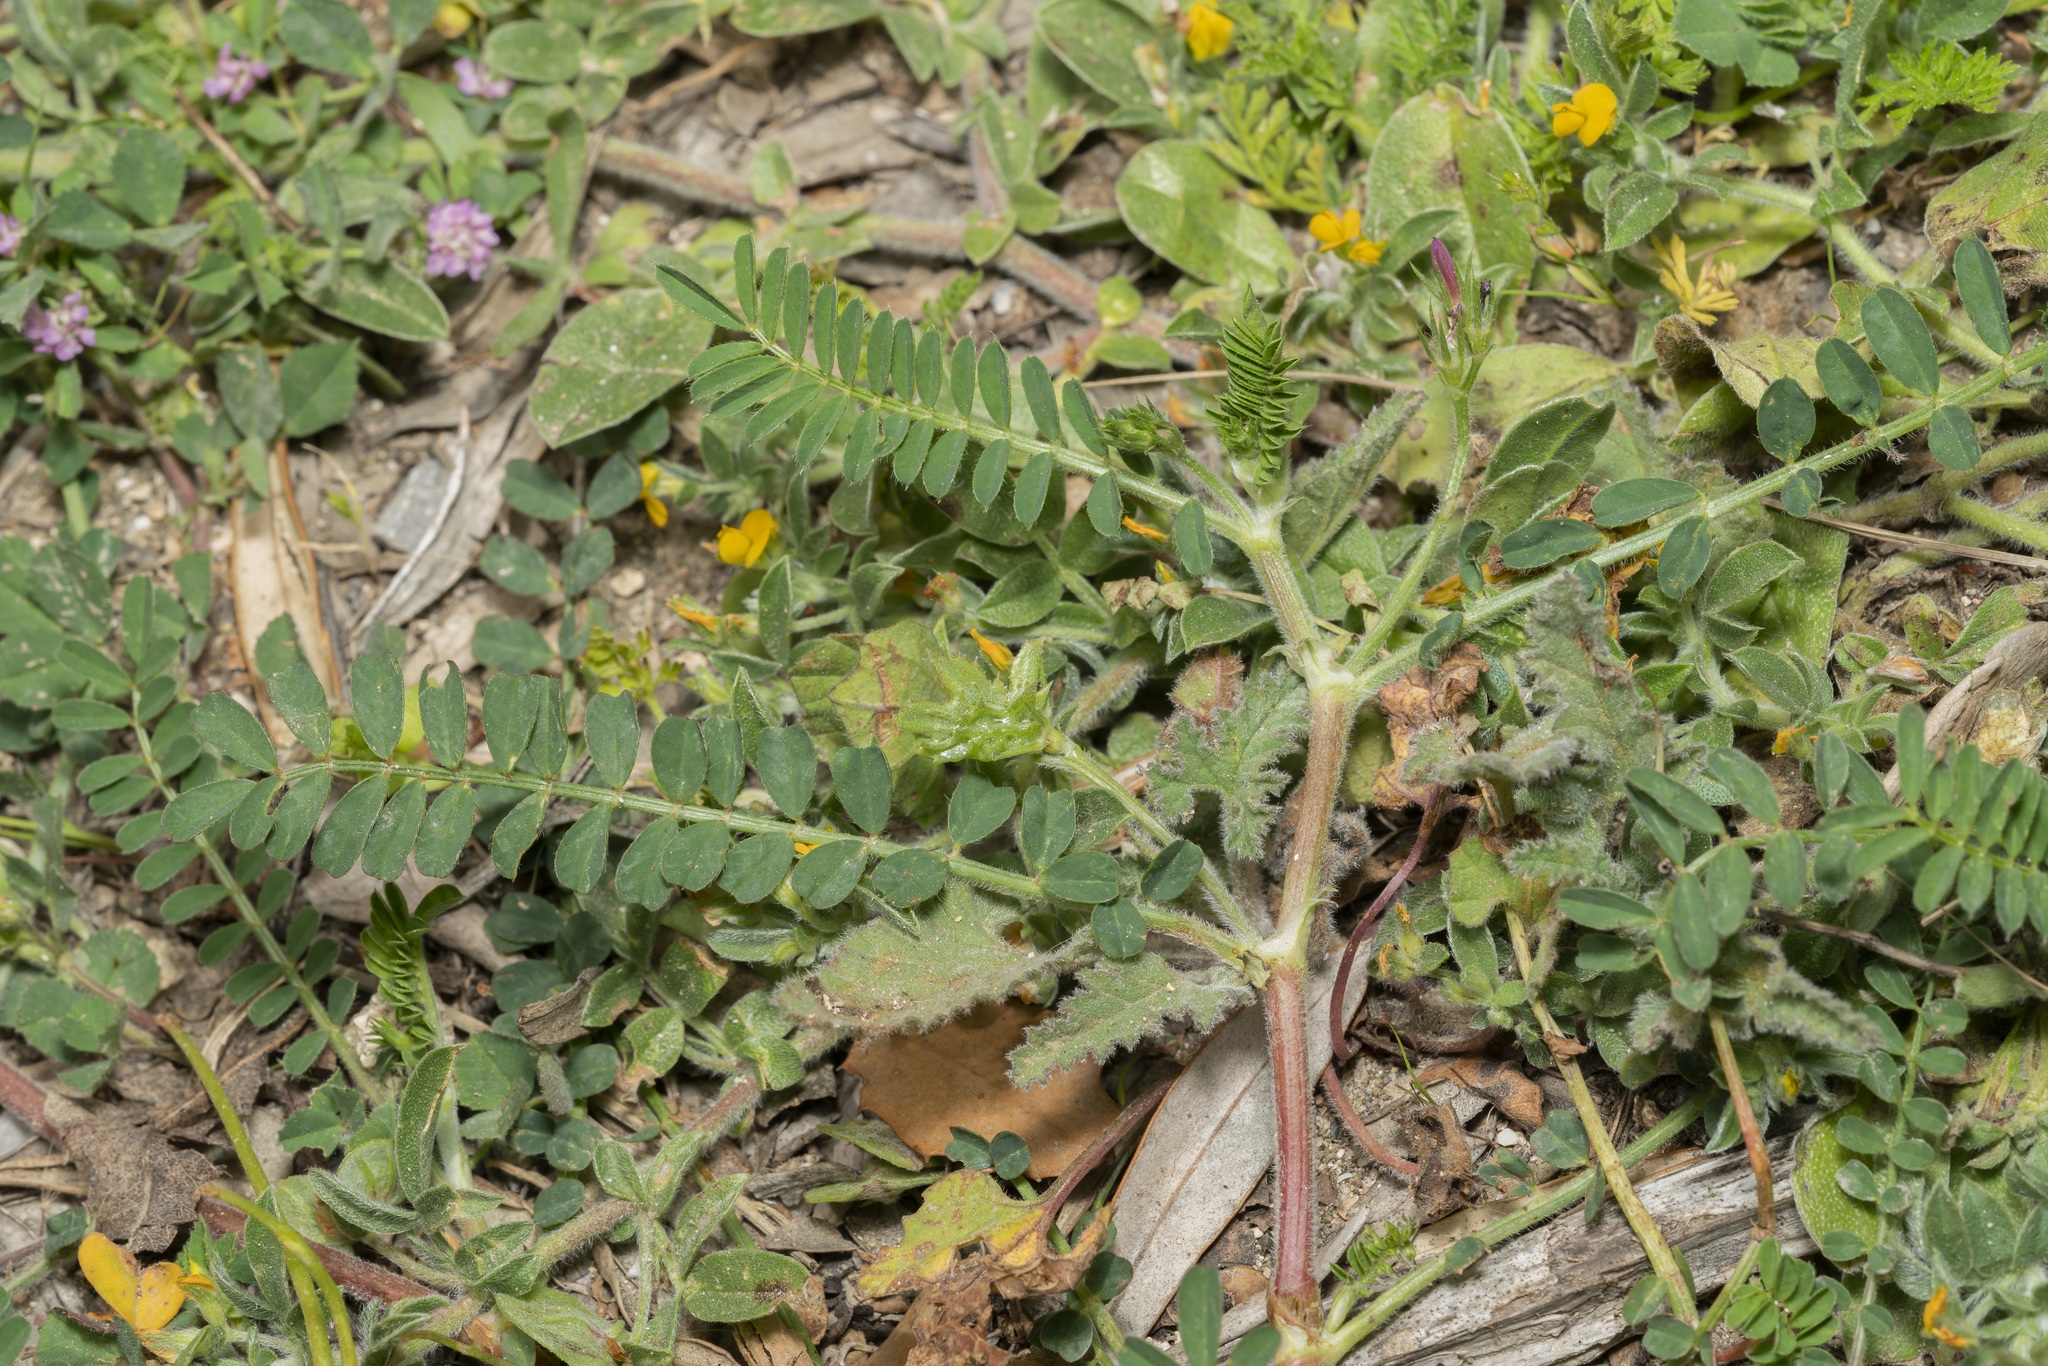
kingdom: Plantae
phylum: Tracheophyta
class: Magnoliopsida
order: Fabales
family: Fabaceae
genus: Onobrychis
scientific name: Onobrychis squarrosa
